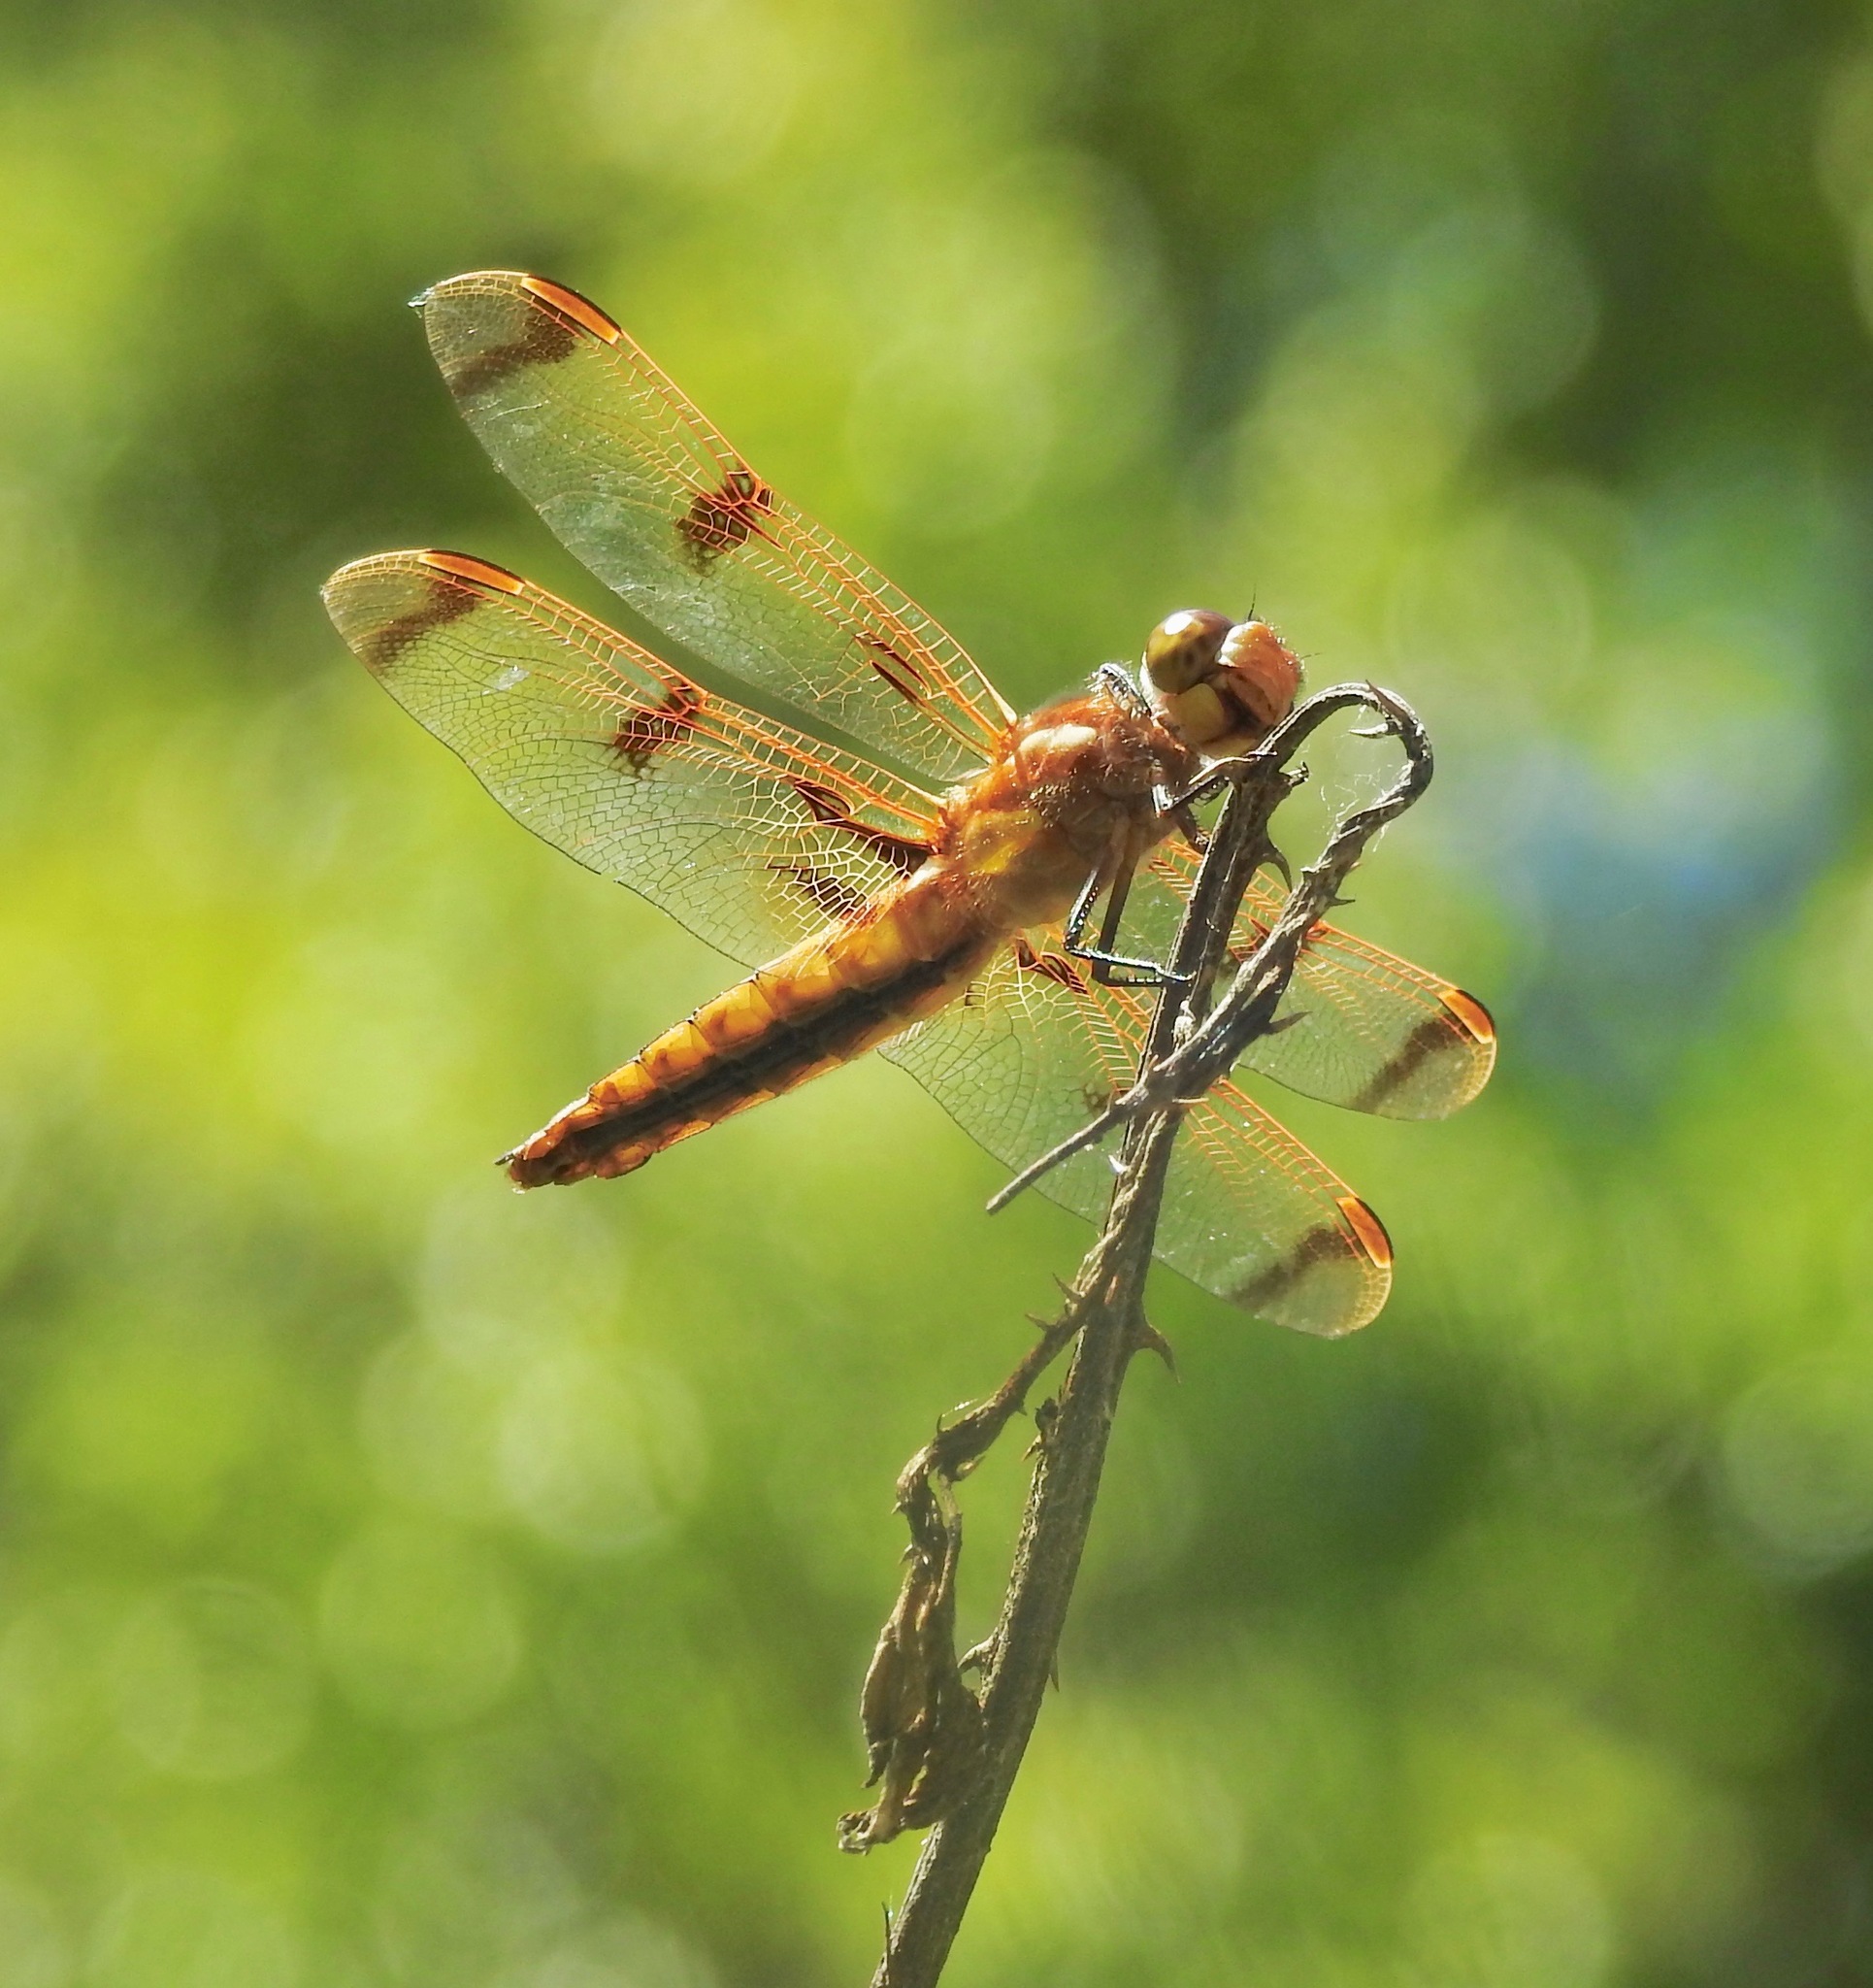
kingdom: Animalia
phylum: Arthropoda
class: Insecta
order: Odonata
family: Libellulidae
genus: Libellula
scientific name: Libellula semifasciata
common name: Painted skimmer
